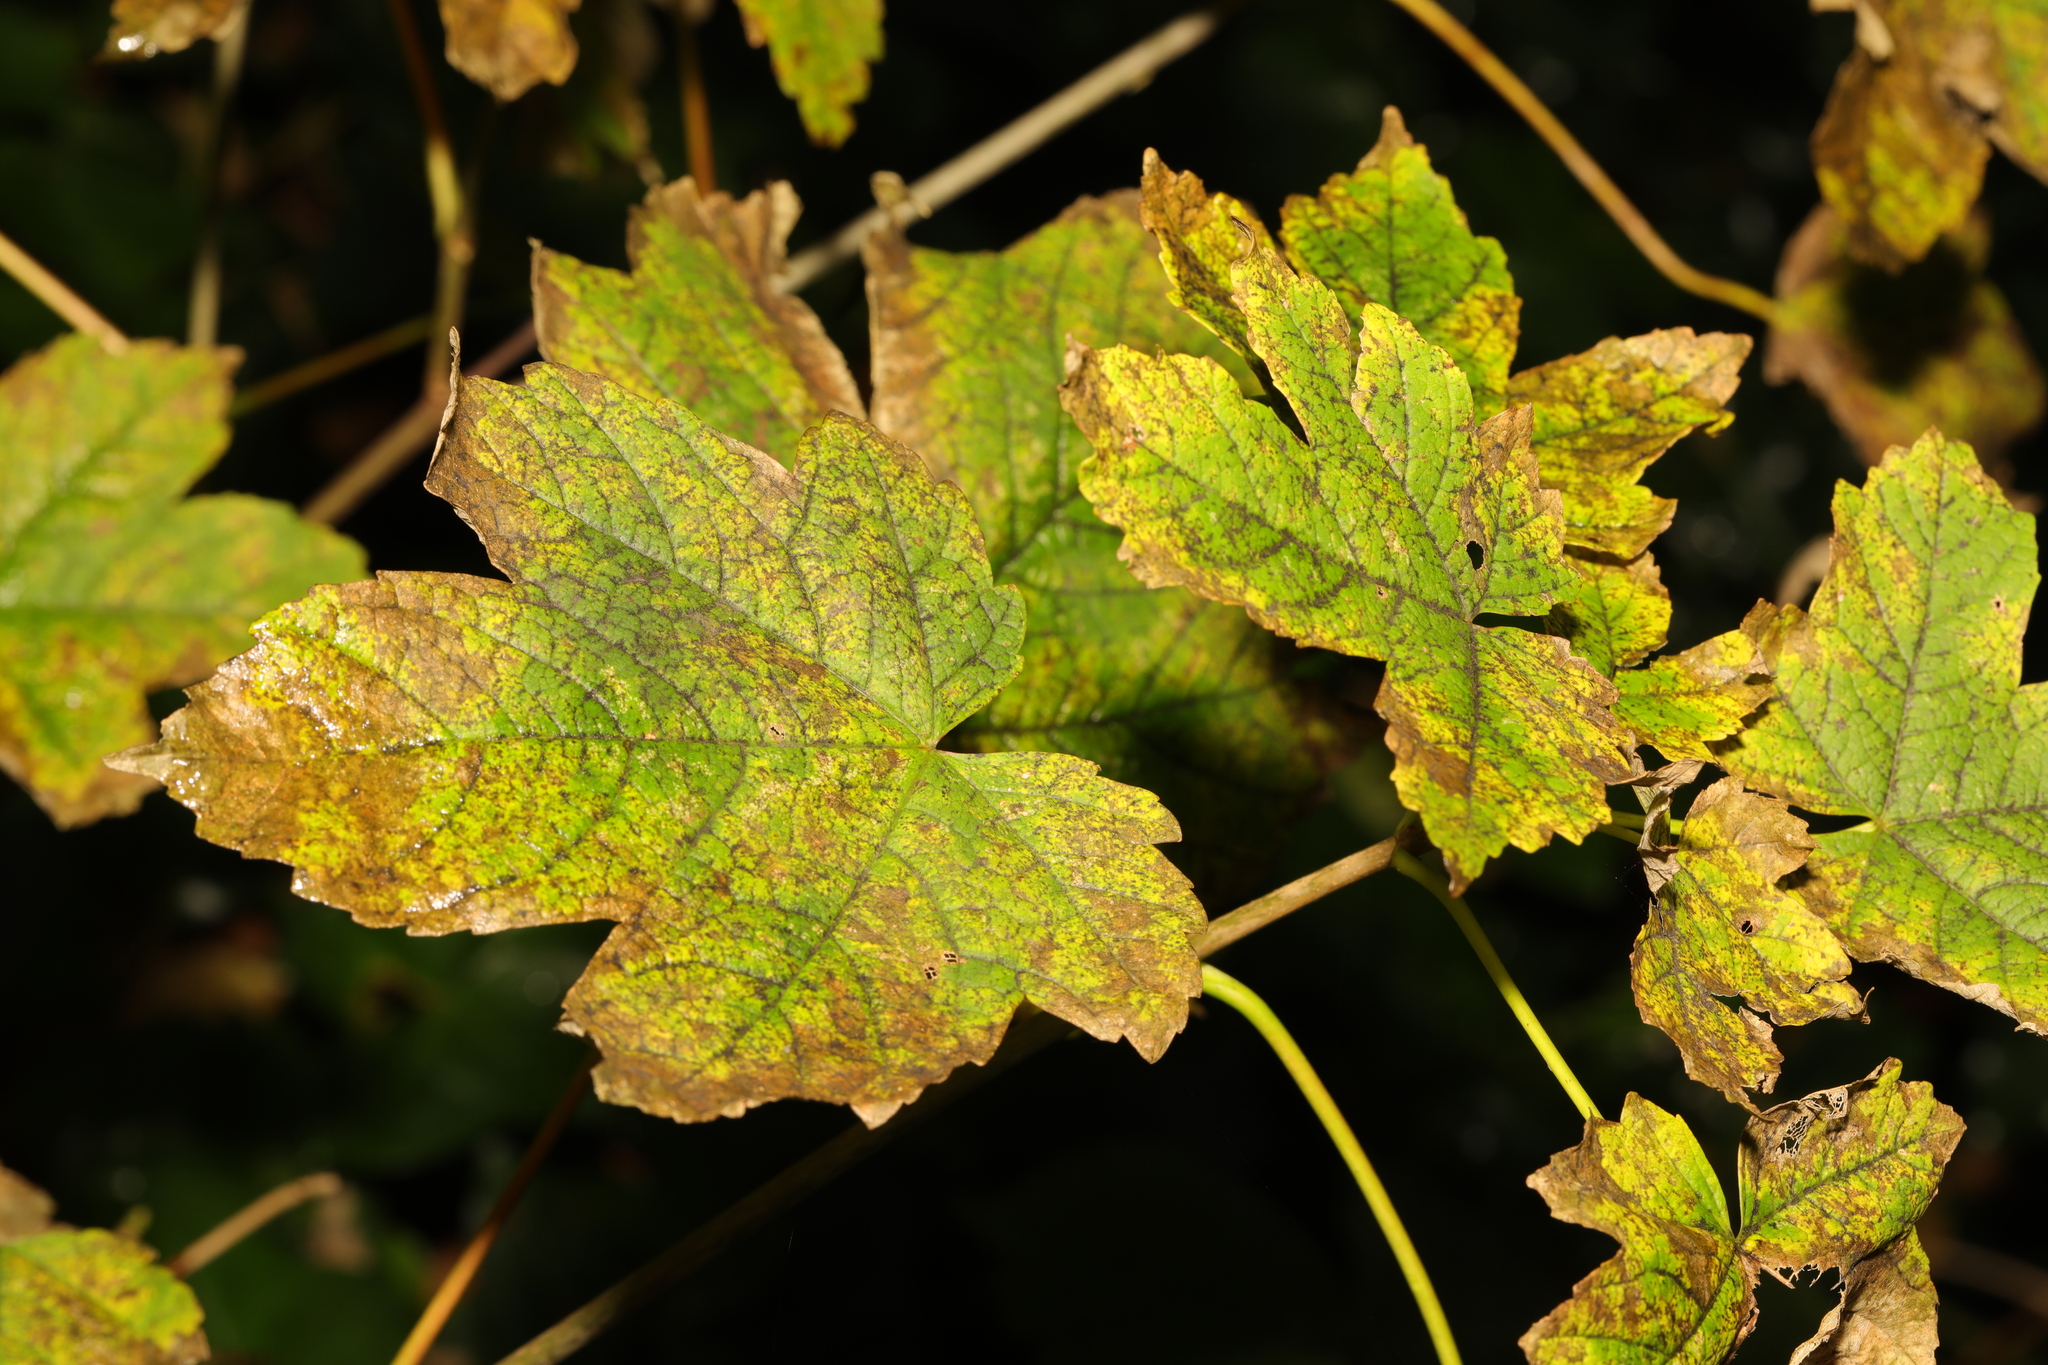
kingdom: Plantae
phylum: Tracheophyta
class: Magnoliopsida
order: Sapindales
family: Sapindaceae
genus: Acer
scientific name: Acer pseudoplatanus
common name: Sycamore
